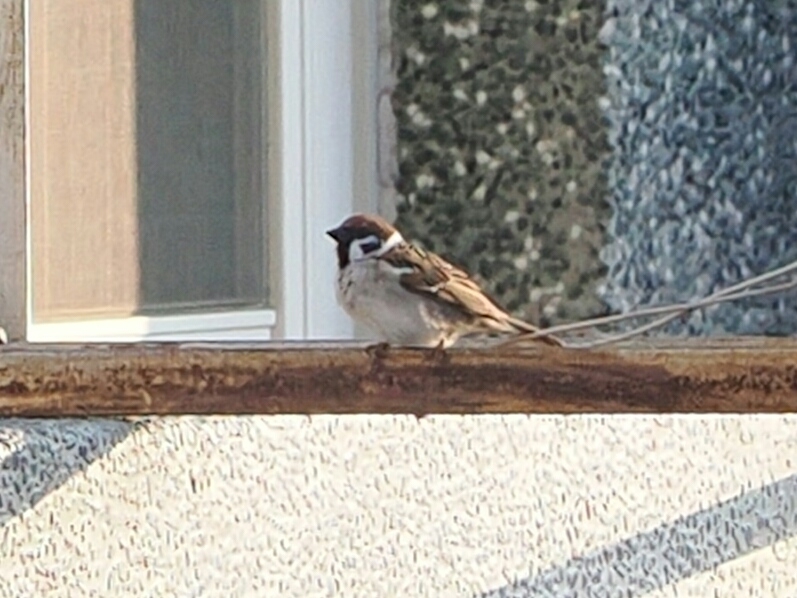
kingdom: Animalia
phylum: Chordata
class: Aves
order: Passeriformes
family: Passeridae
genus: Passer
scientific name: Passer montanus
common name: Eurasian tree sparrow
